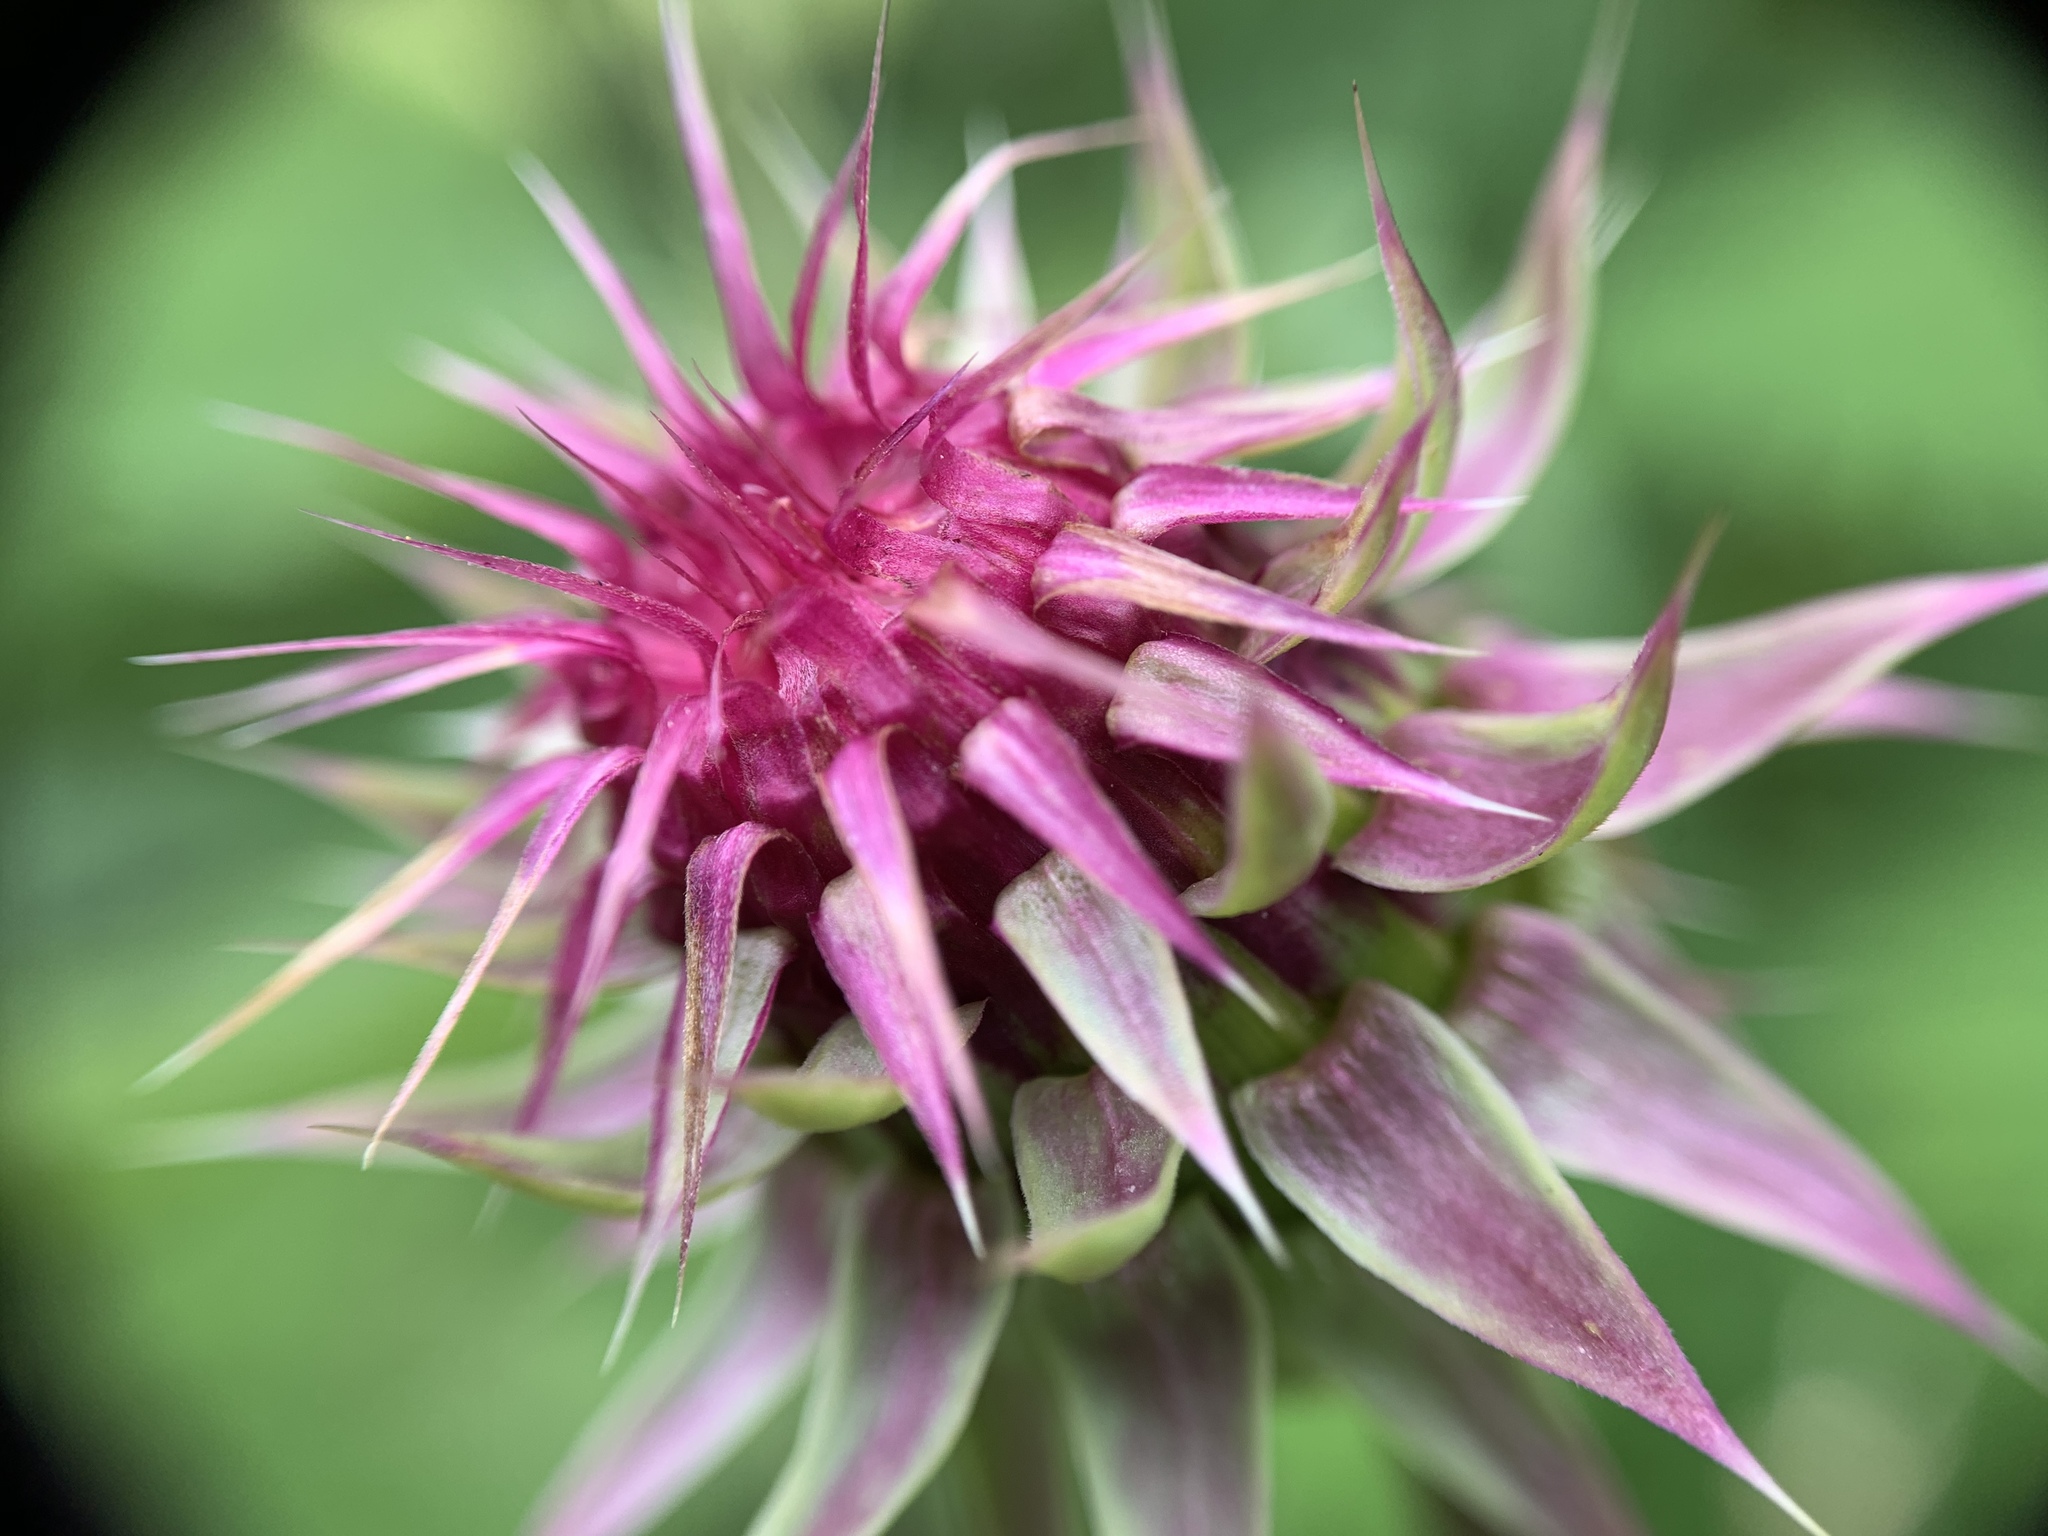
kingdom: Plantae
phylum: Tracheophyta
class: Magnoliopsida
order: Asterales
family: Asteraceae
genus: Carduus
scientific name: Carduus nutans
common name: Musk thistle
